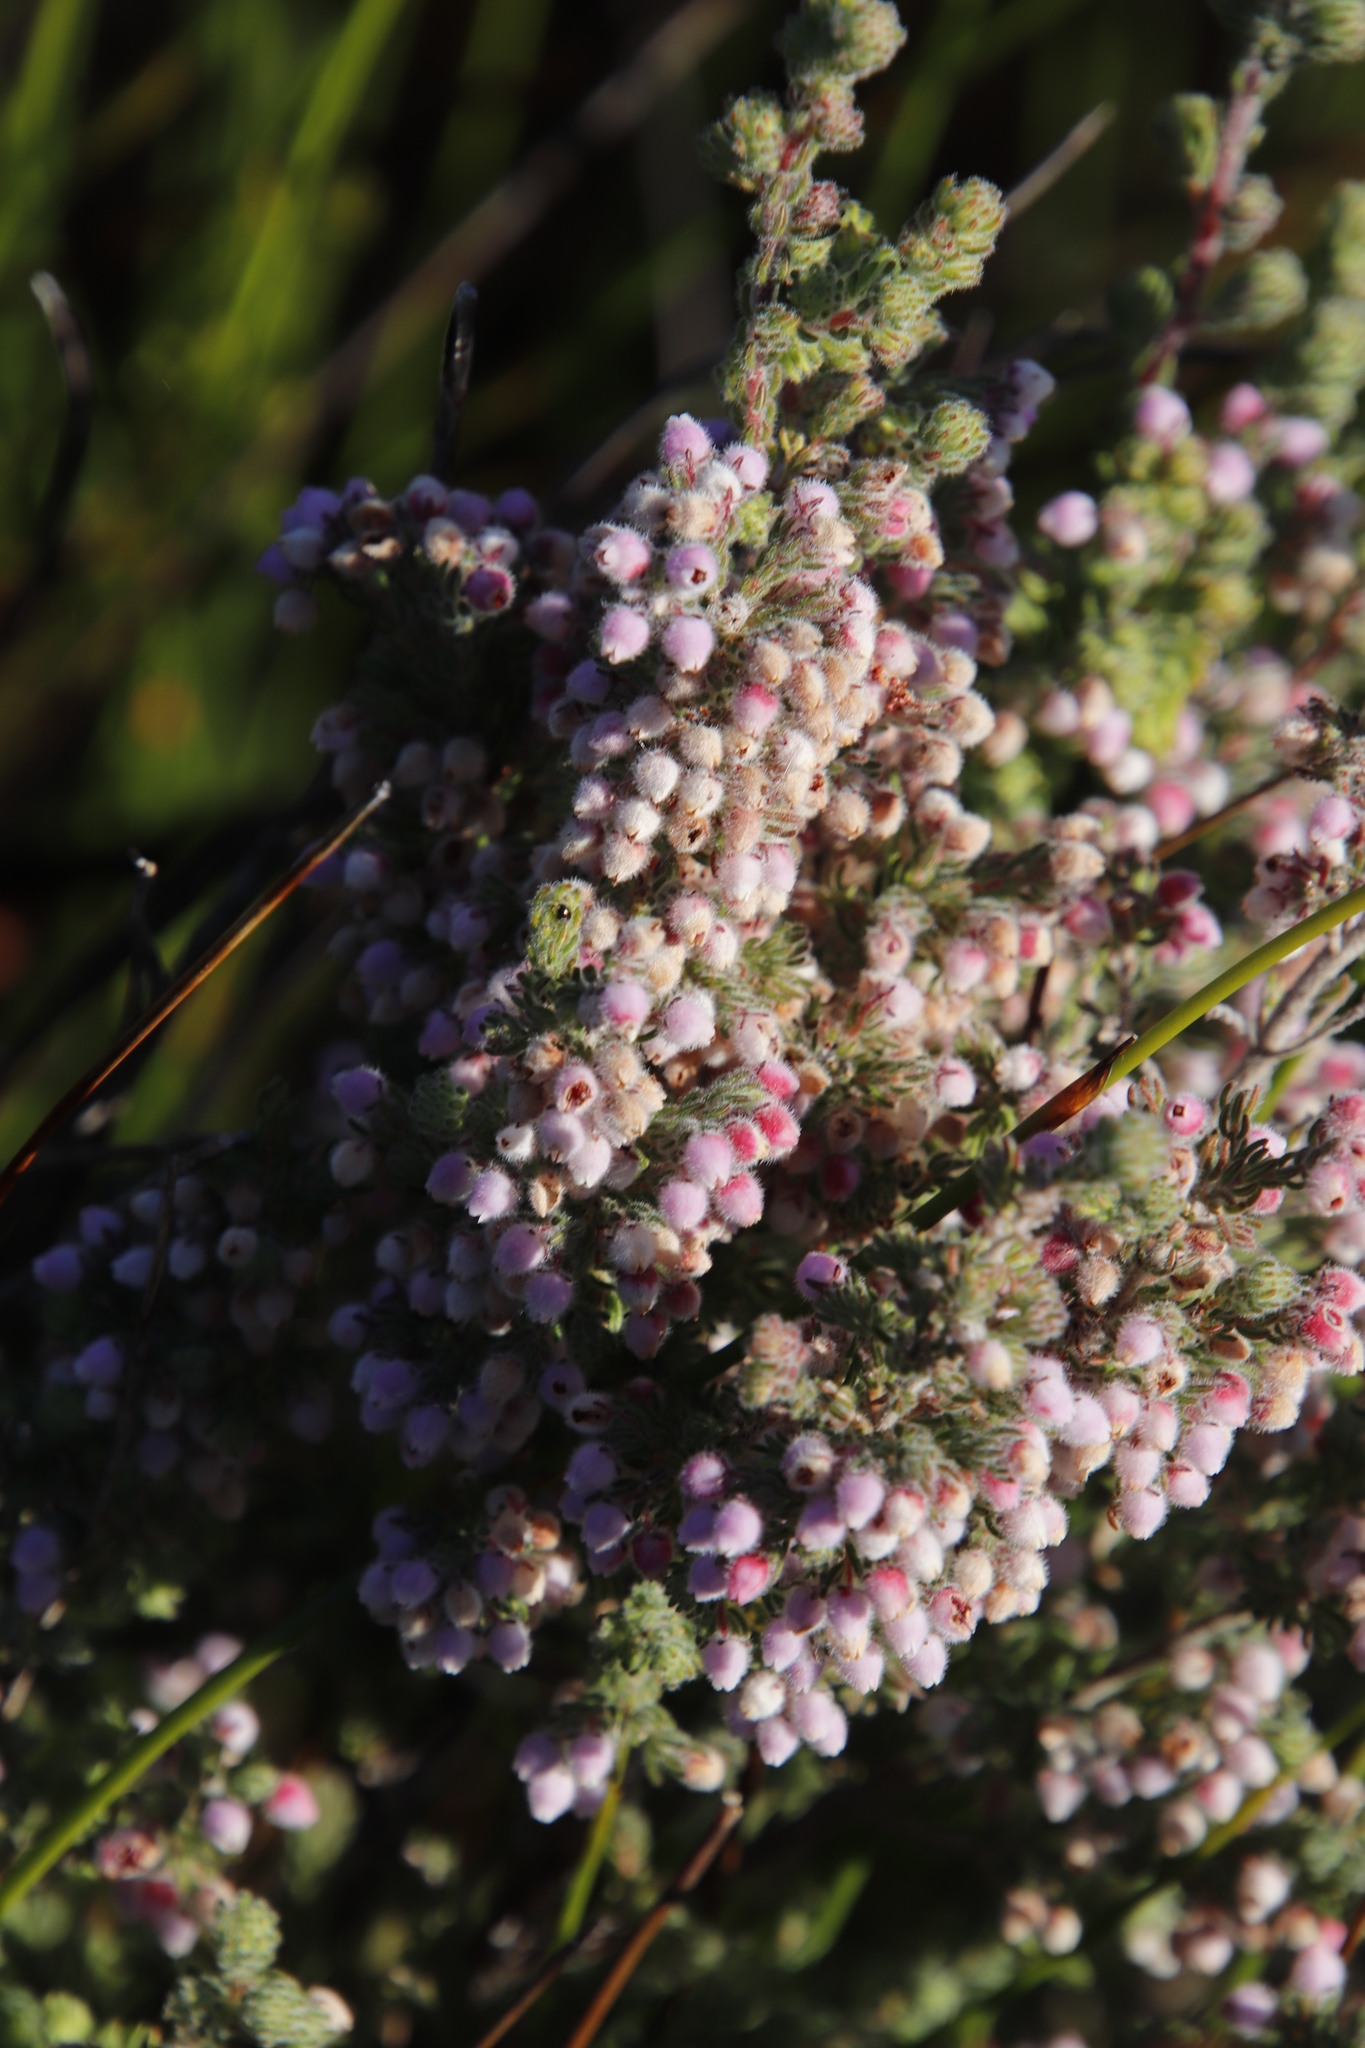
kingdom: Plantae
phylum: Tracheophyta
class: Magnoliopsida
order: Ericales
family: Ericaceae
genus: Erica
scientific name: Erica hirtiflora
